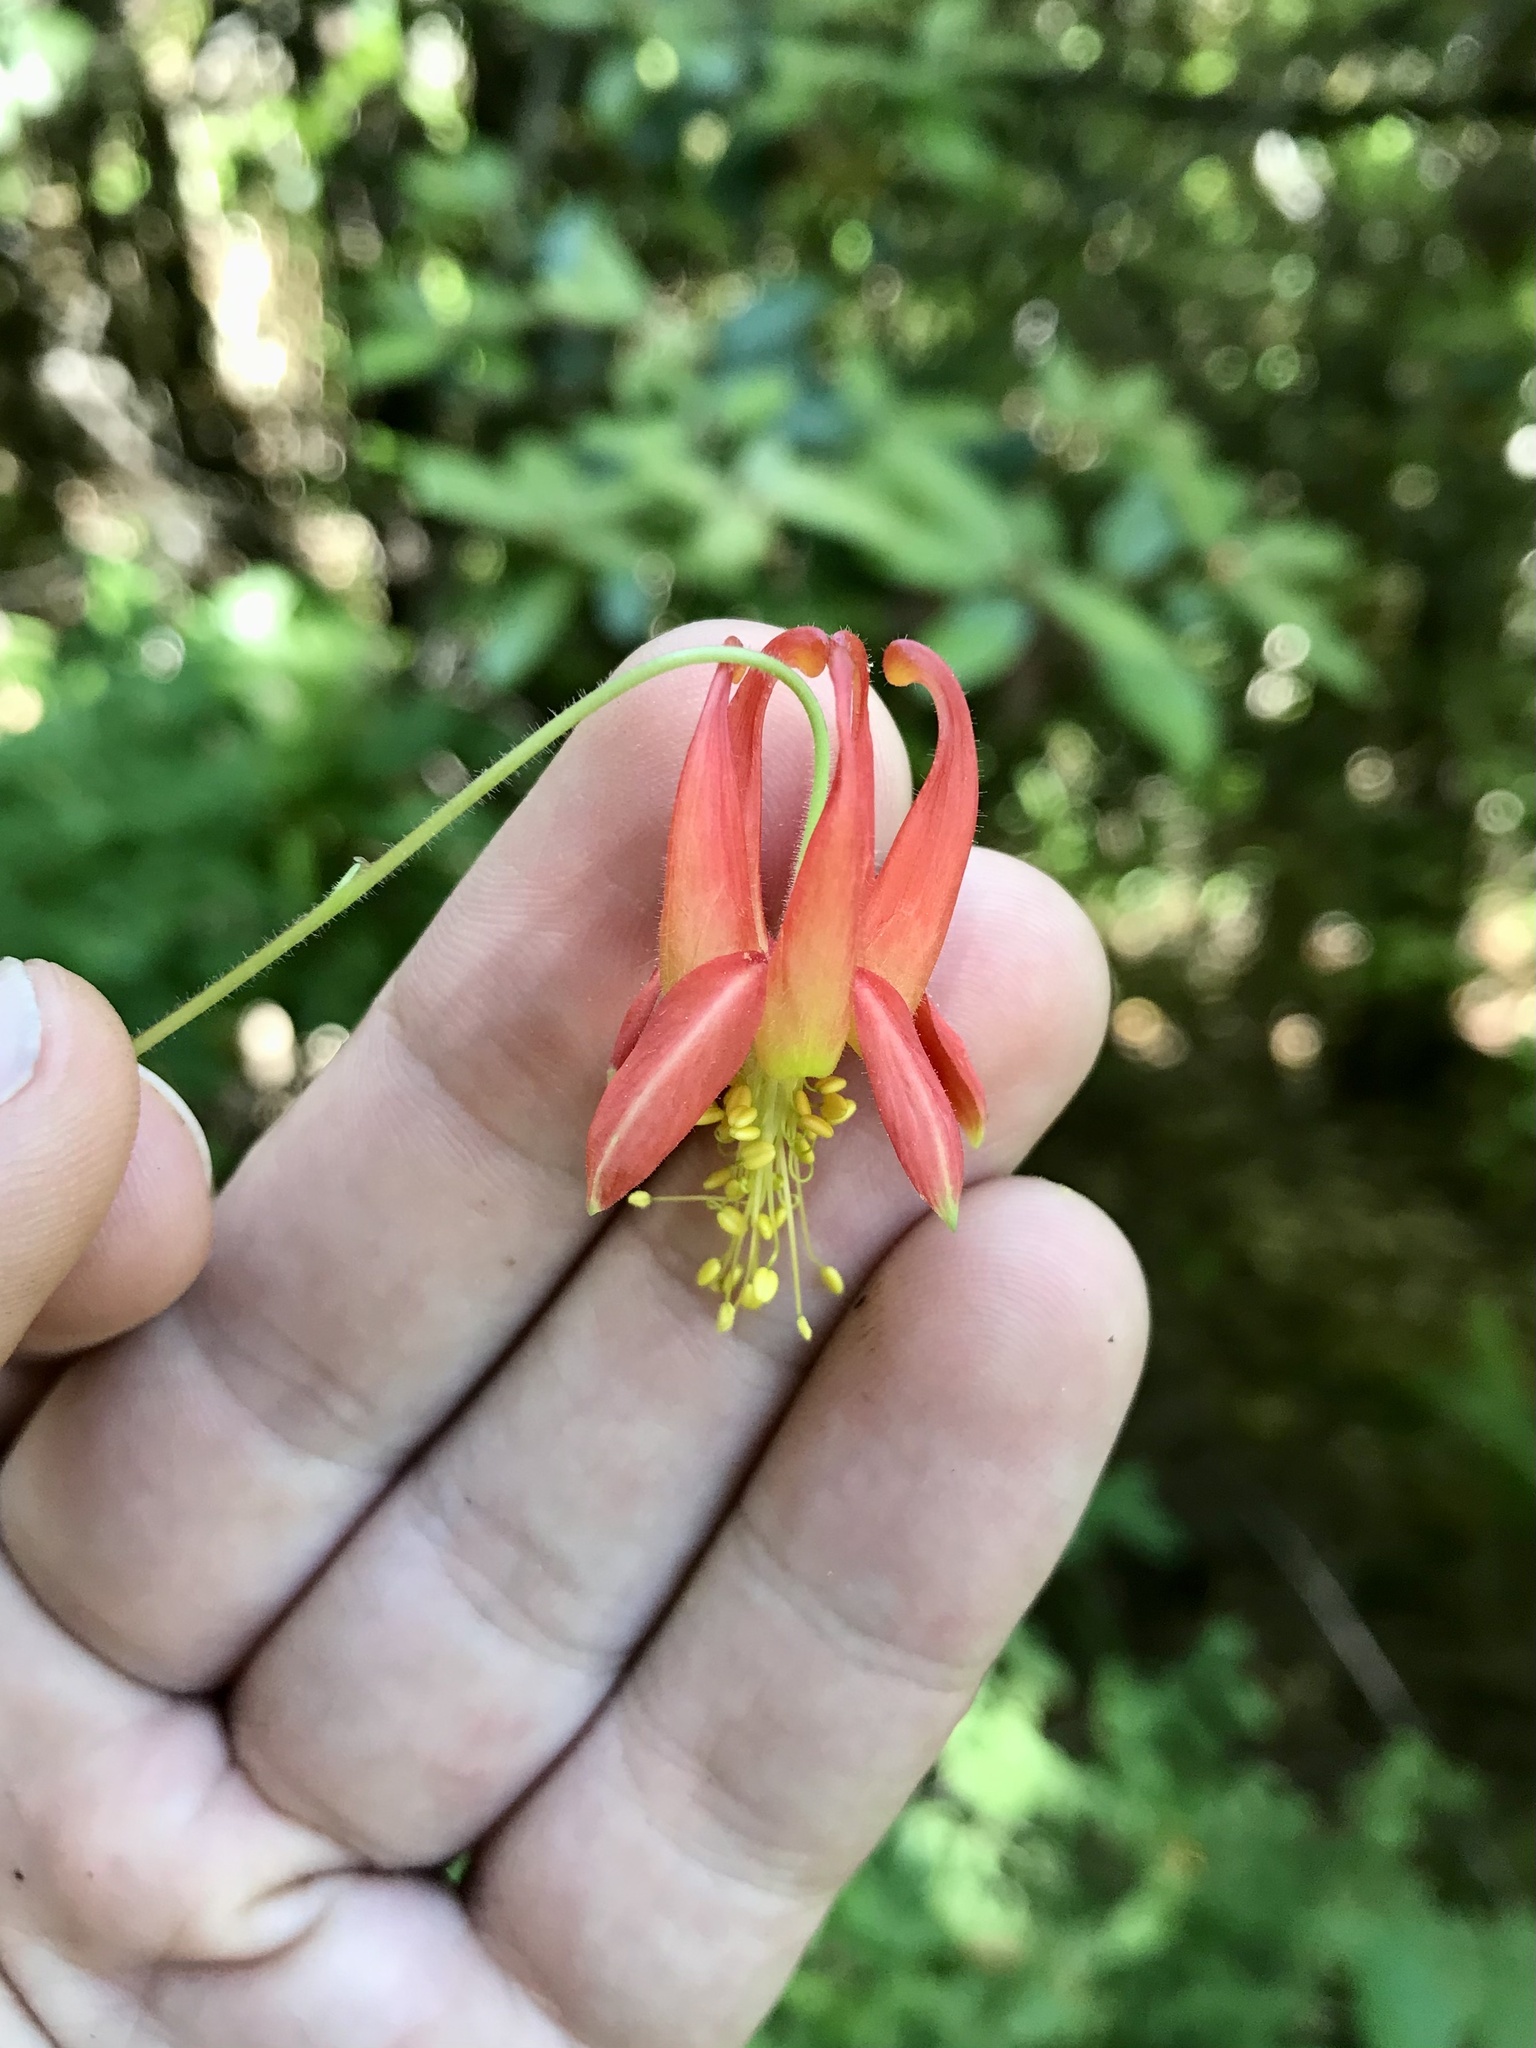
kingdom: Plantae
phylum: Tracheophyta
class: Magnoliopsida
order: Ranunculales
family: Ranunculaceae
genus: Aquilegia
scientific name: Aquilegia formosa
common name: Sitka columbine
